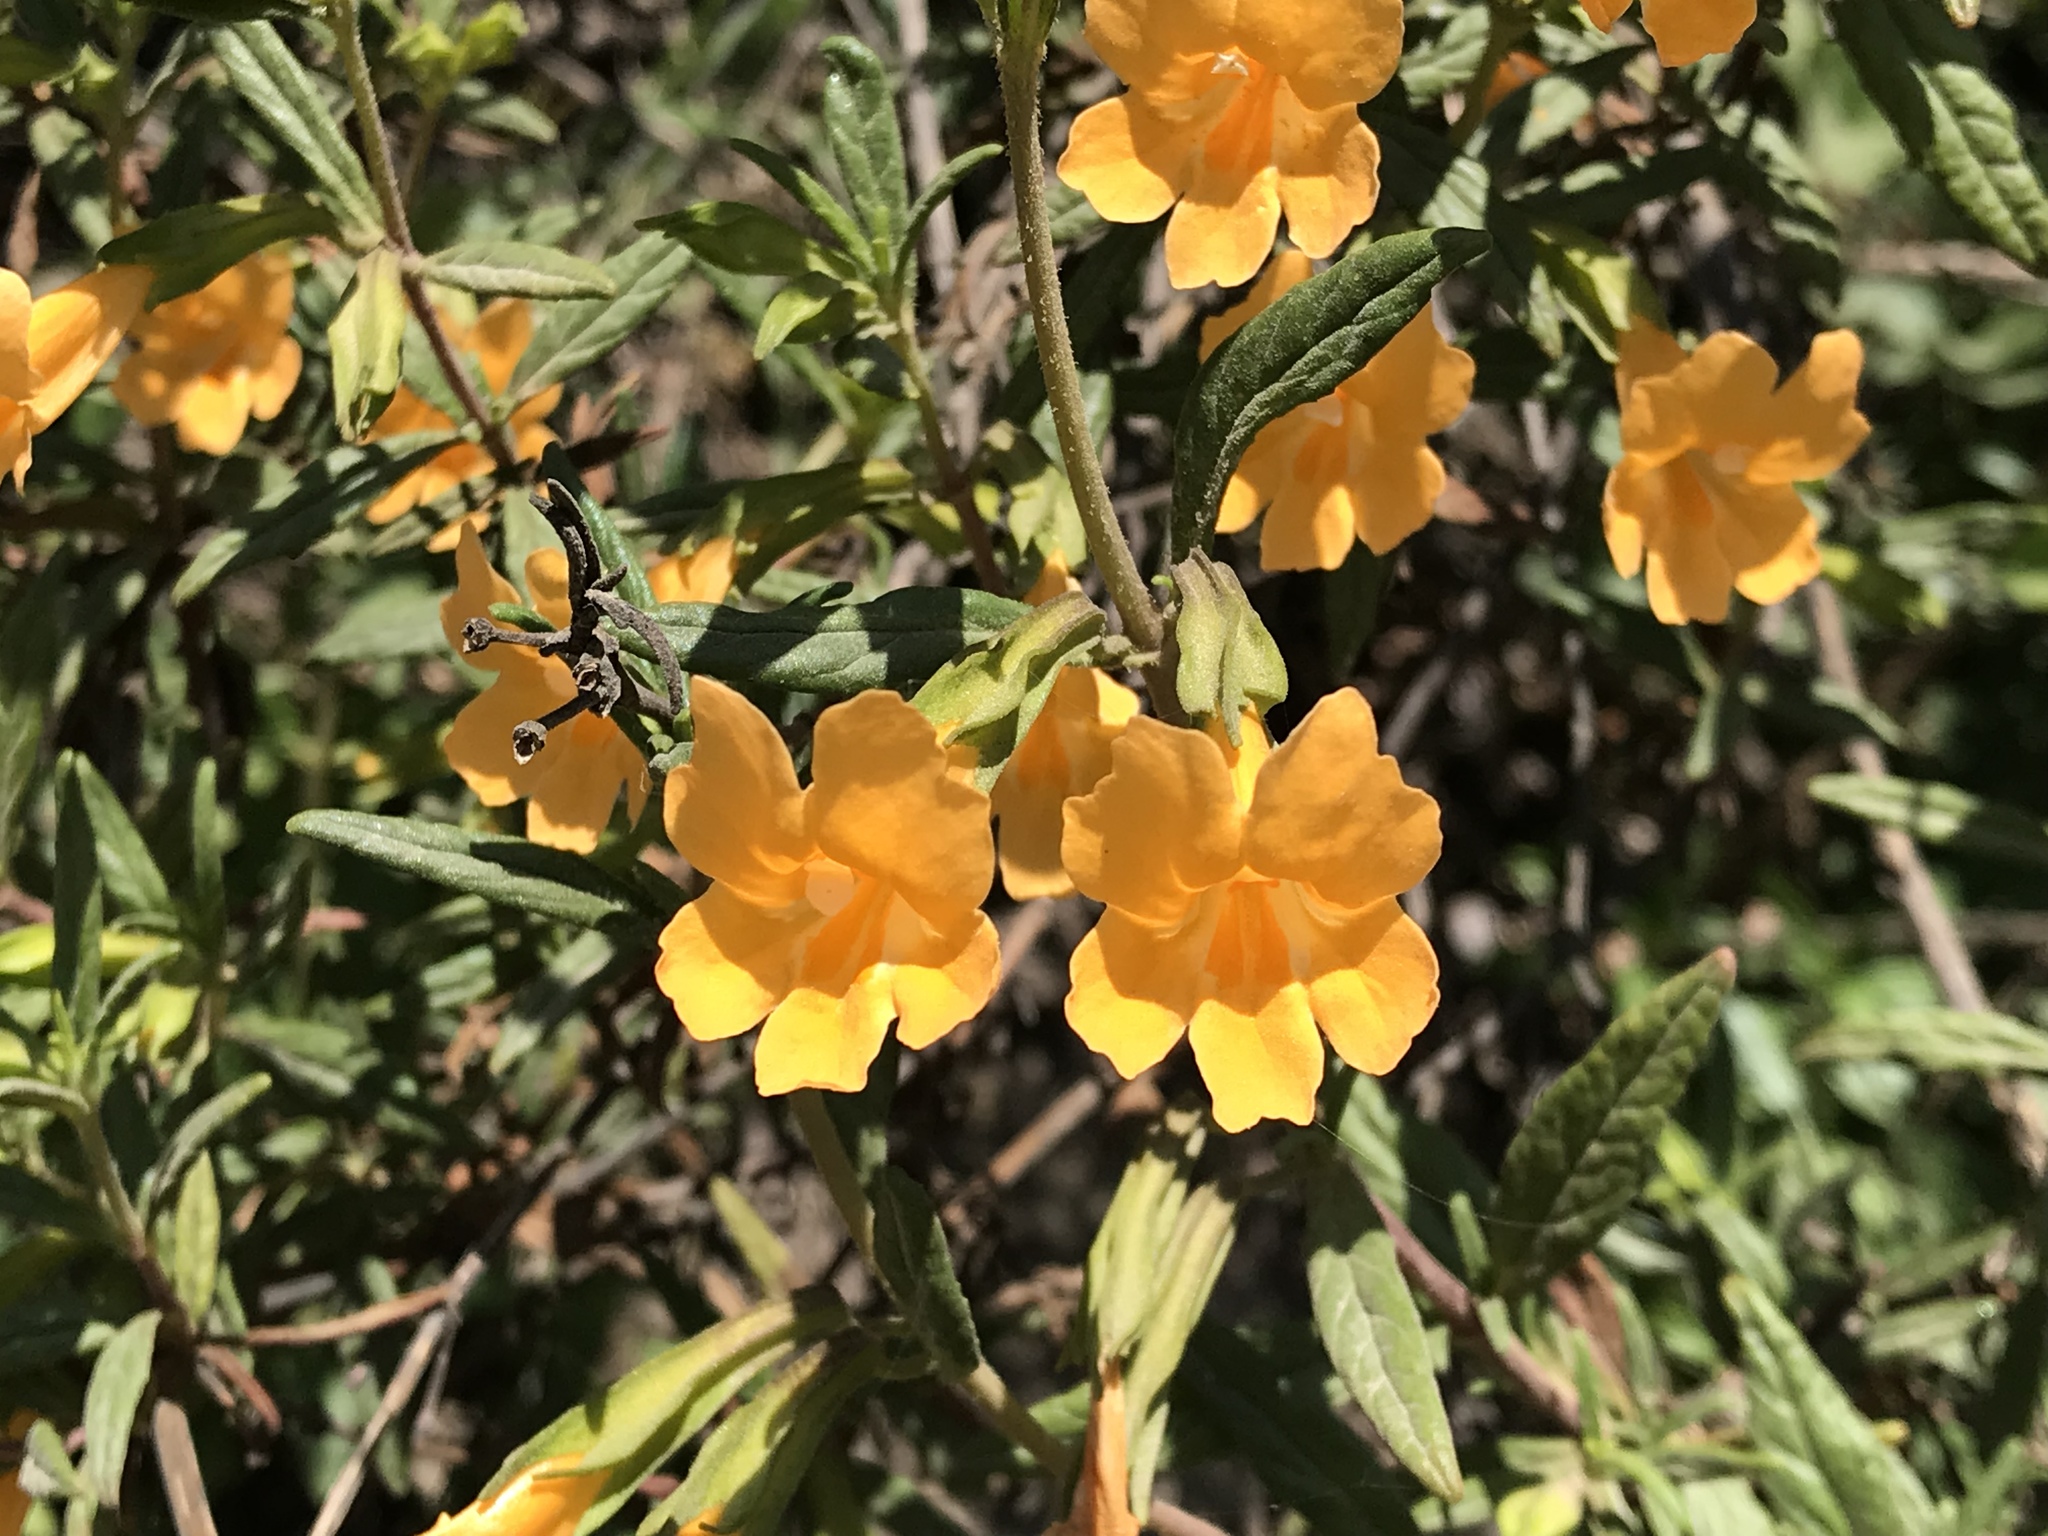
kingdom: Plantae
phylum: Tracheophyta
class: Magnoliopsida
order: Lamiales
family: Phrymaceae
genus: Diplacus
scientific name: Diplacus aurantiacus
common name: Bush monkey-flower
